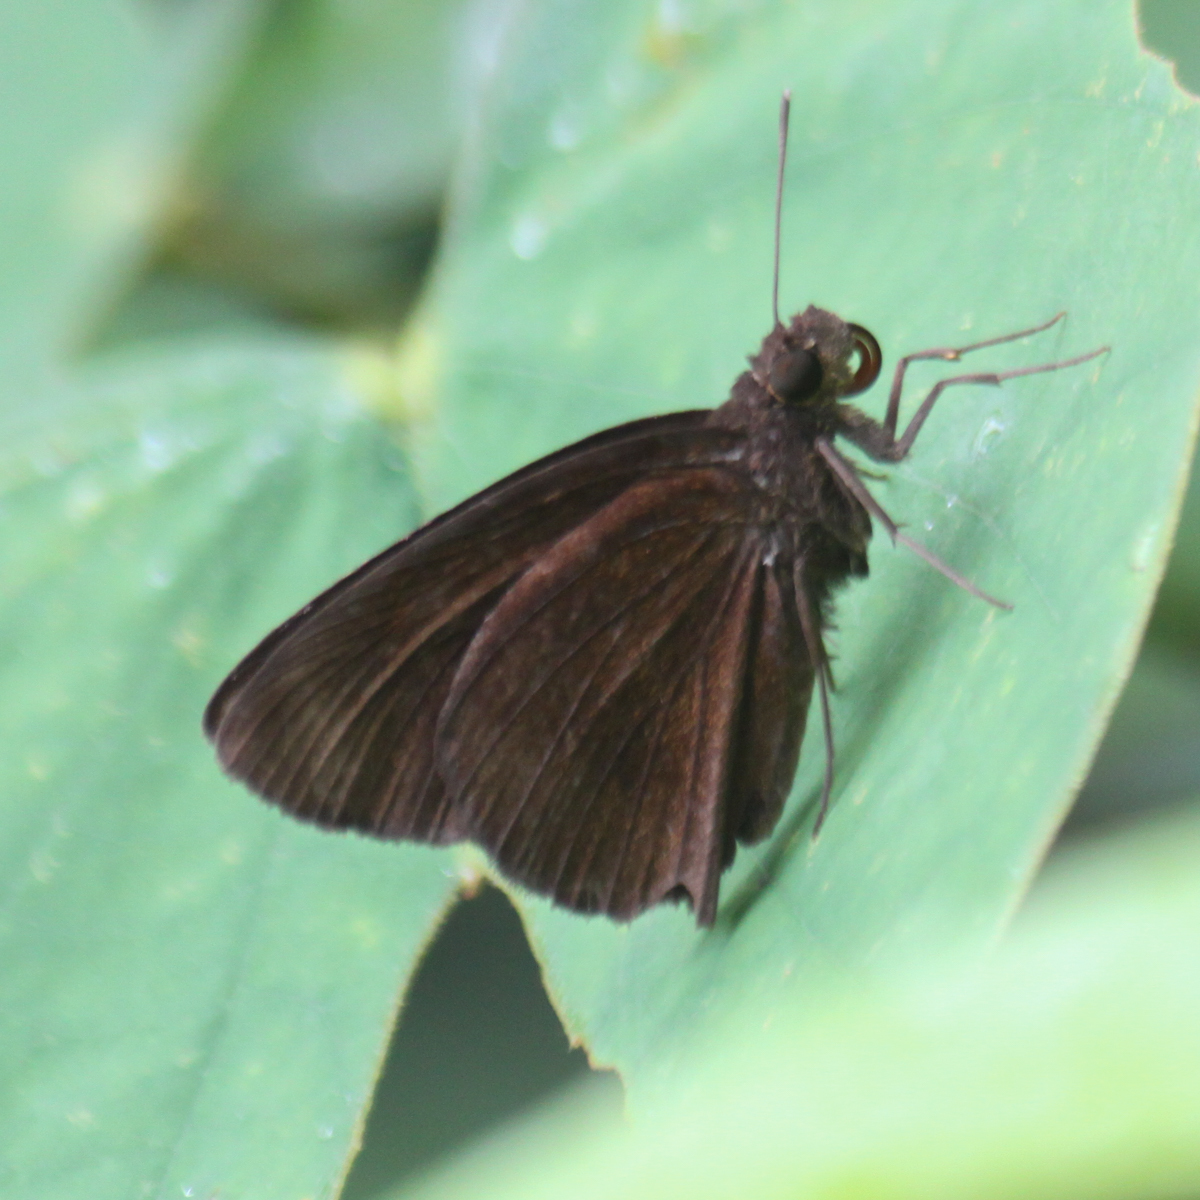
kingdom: Animalia
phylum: Arthropoda
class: Insecta
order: Lepidoptera
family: Hesperiidae
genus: Ancistroides
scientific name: Ancistroides nigrita
